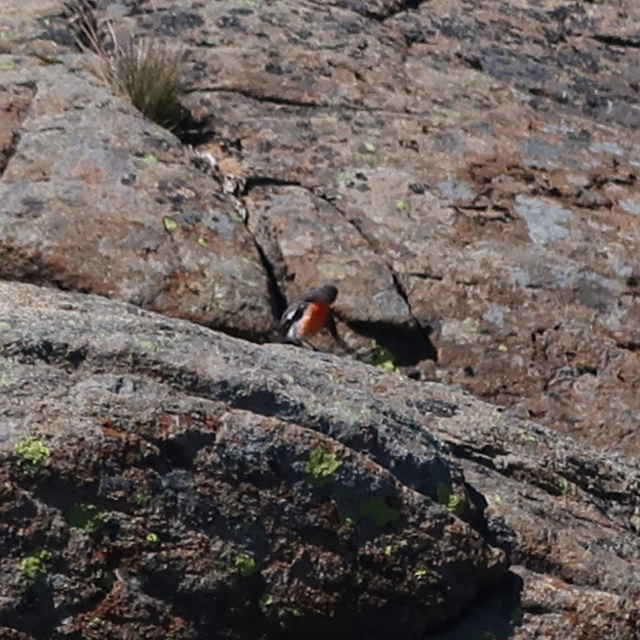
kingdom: Animalia
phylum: Chordata
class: Aves
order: Passeriformes
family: Petroicidae
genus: Petroica
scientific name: Petroica phoenicea
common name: Flame robin
